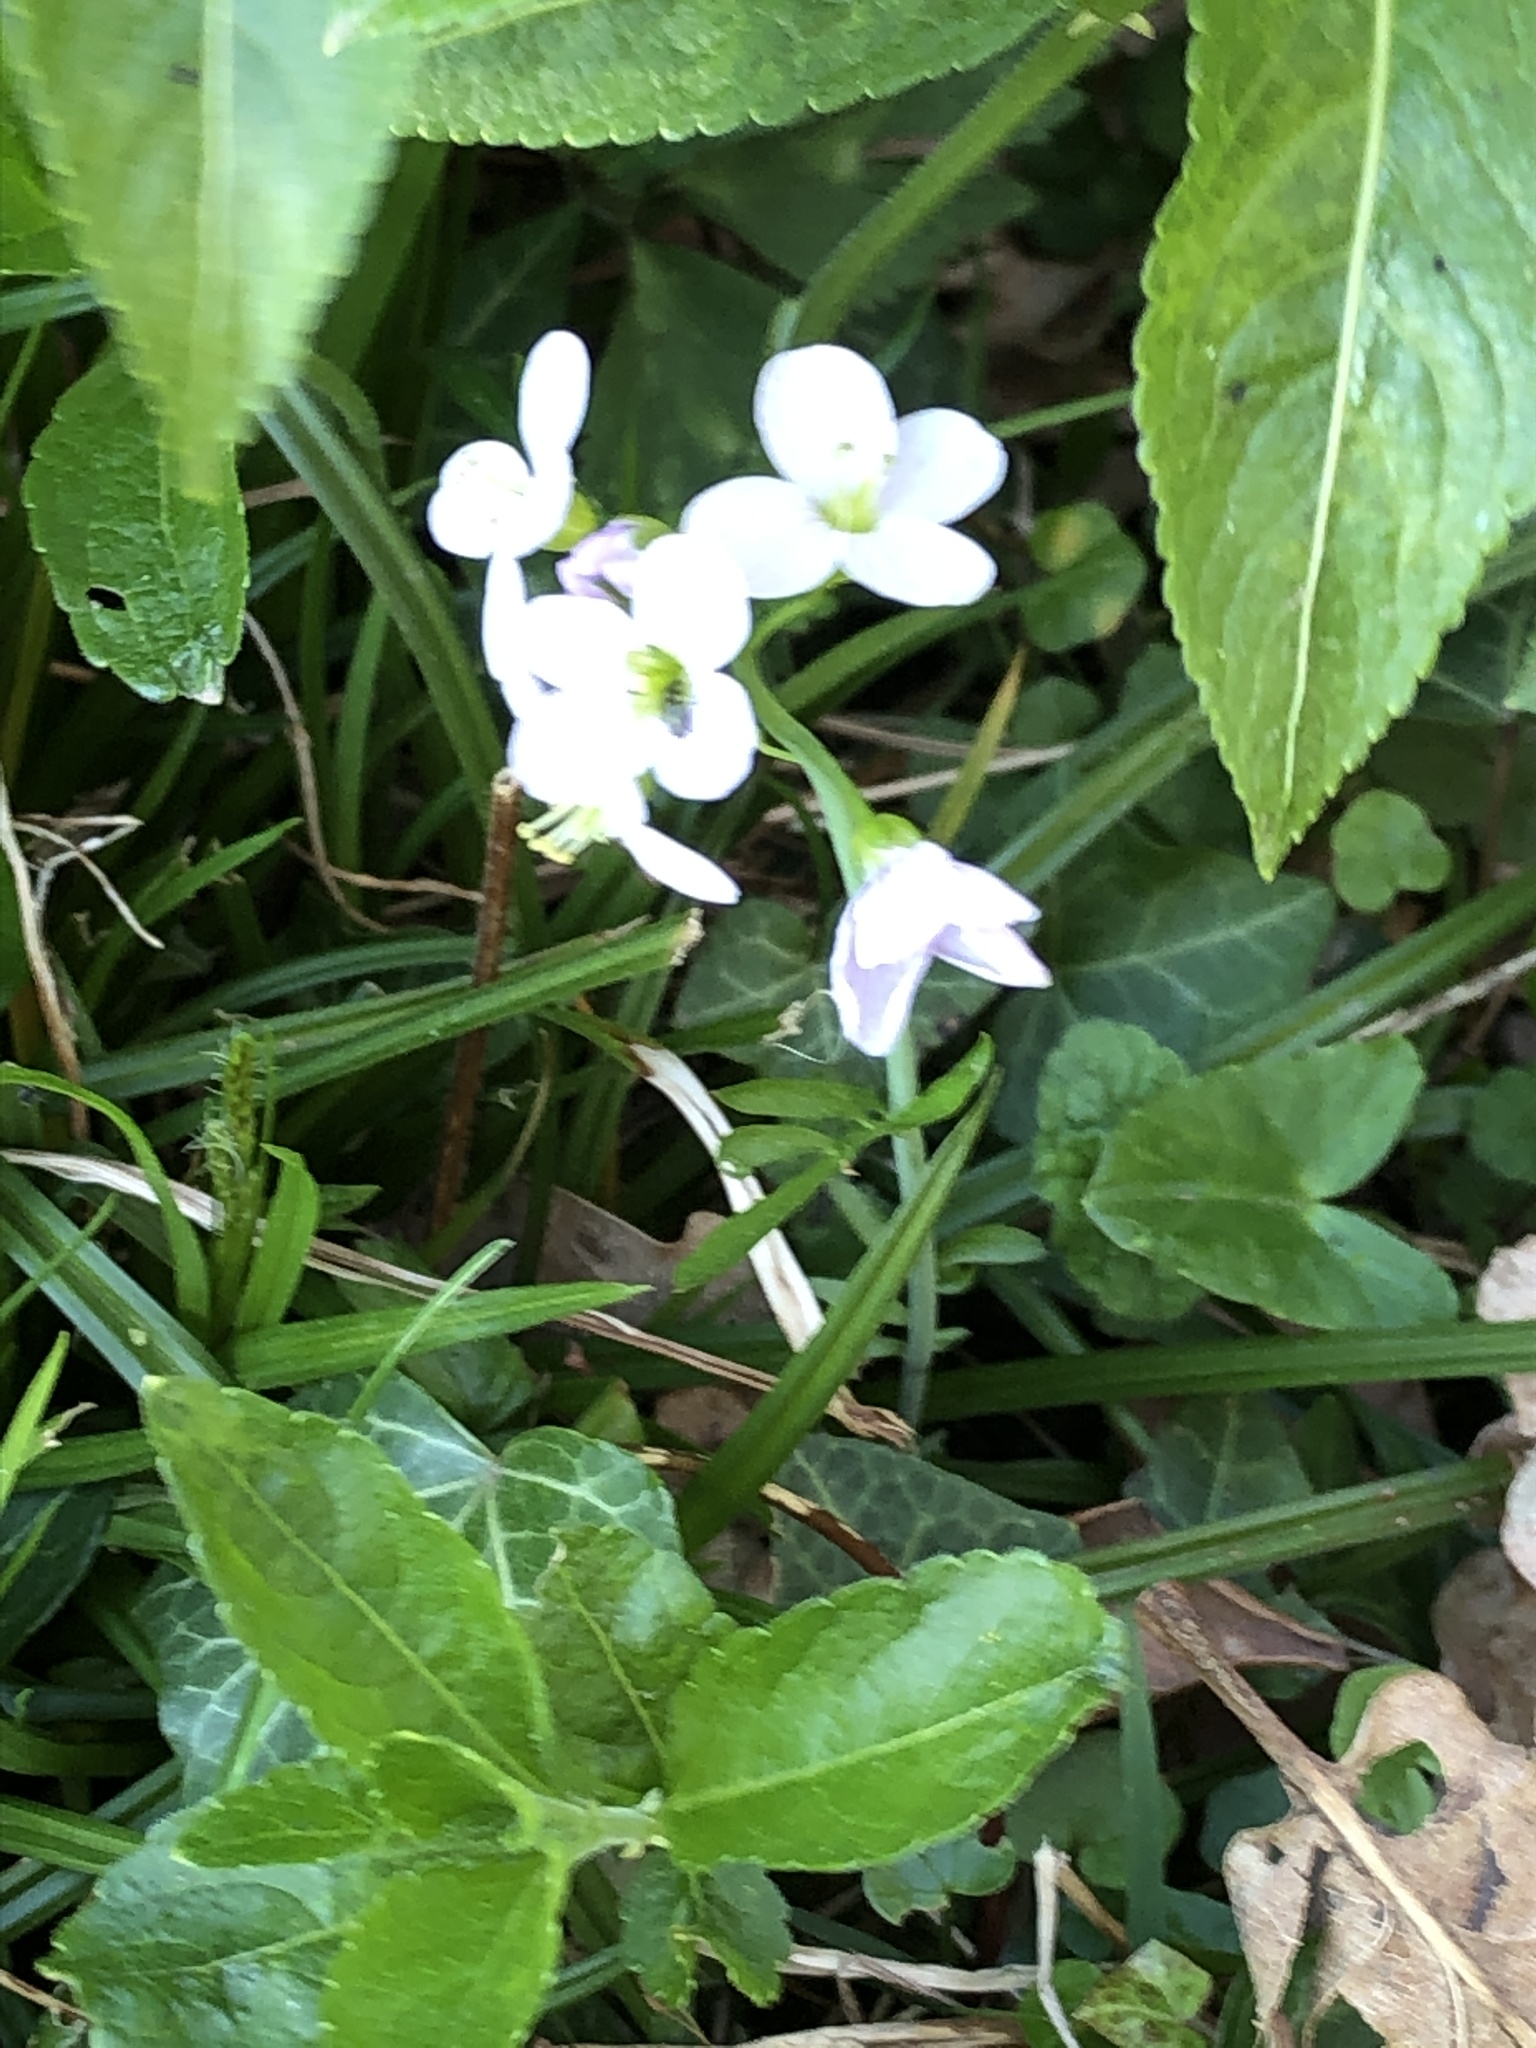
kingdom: Plantae
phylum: Tracheophyta
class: Magnoliopsida
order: Brassicales
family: Brassicaceae
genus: Cardamine
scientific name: Cardamine pratensis
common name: Cuckoo flower
